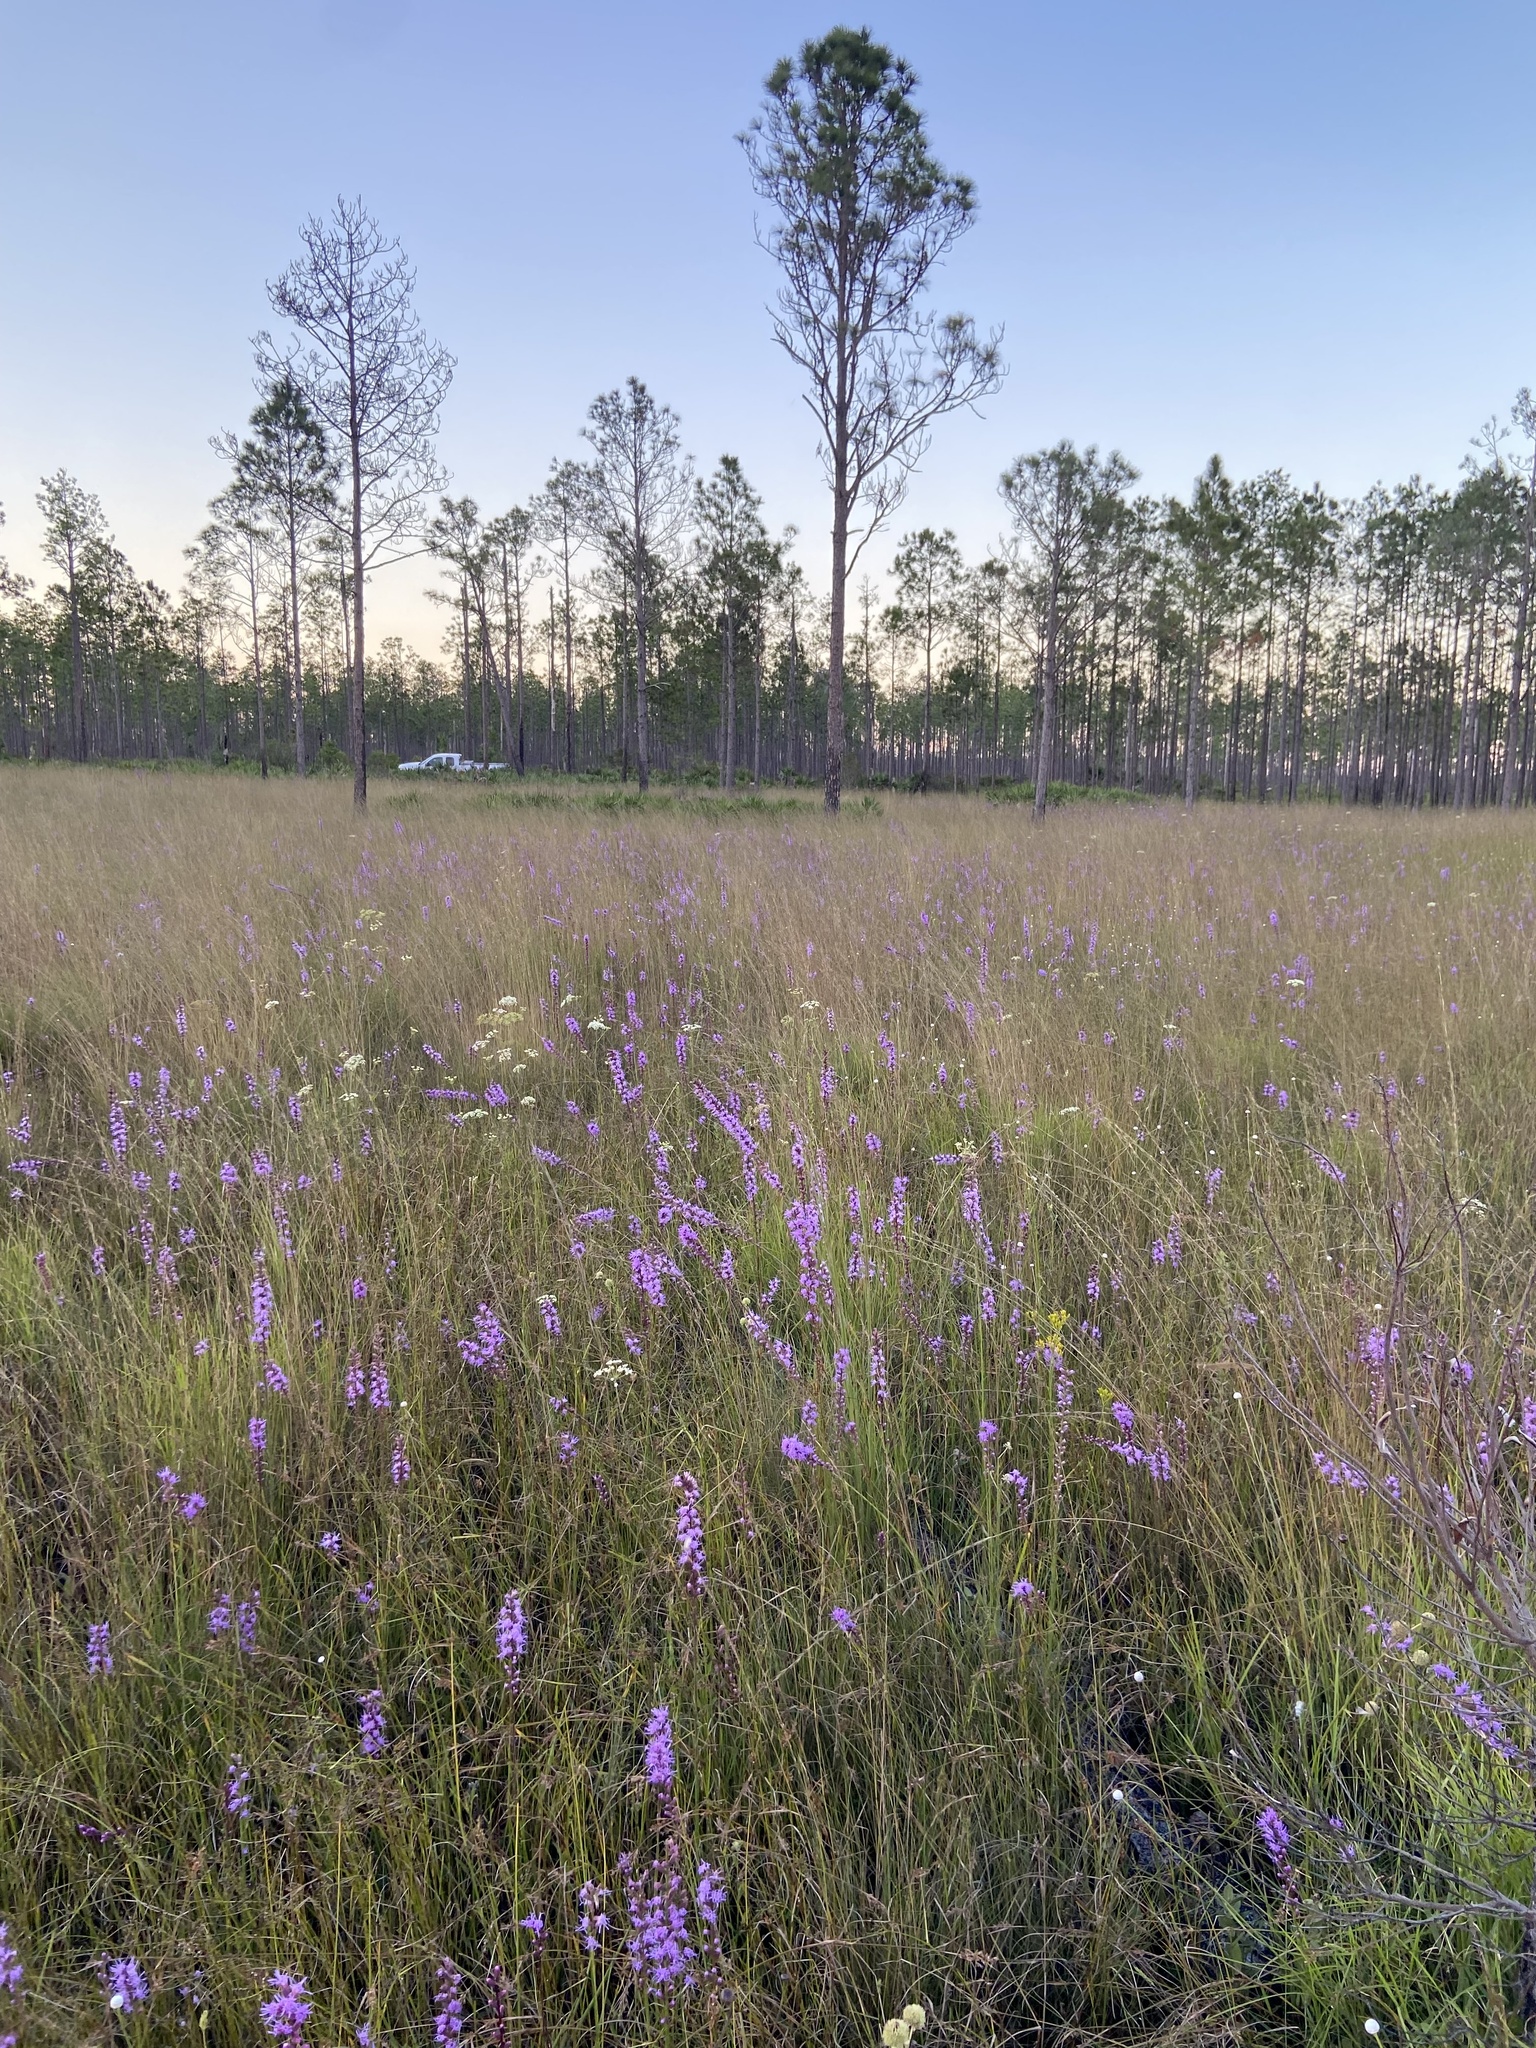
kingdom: Plantae
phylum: Tracheophyta
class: Magnoliopsida
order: Asterales
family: Asteraceae
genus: Liatris
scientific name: Liatris spicata
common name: Florist gayfeather
